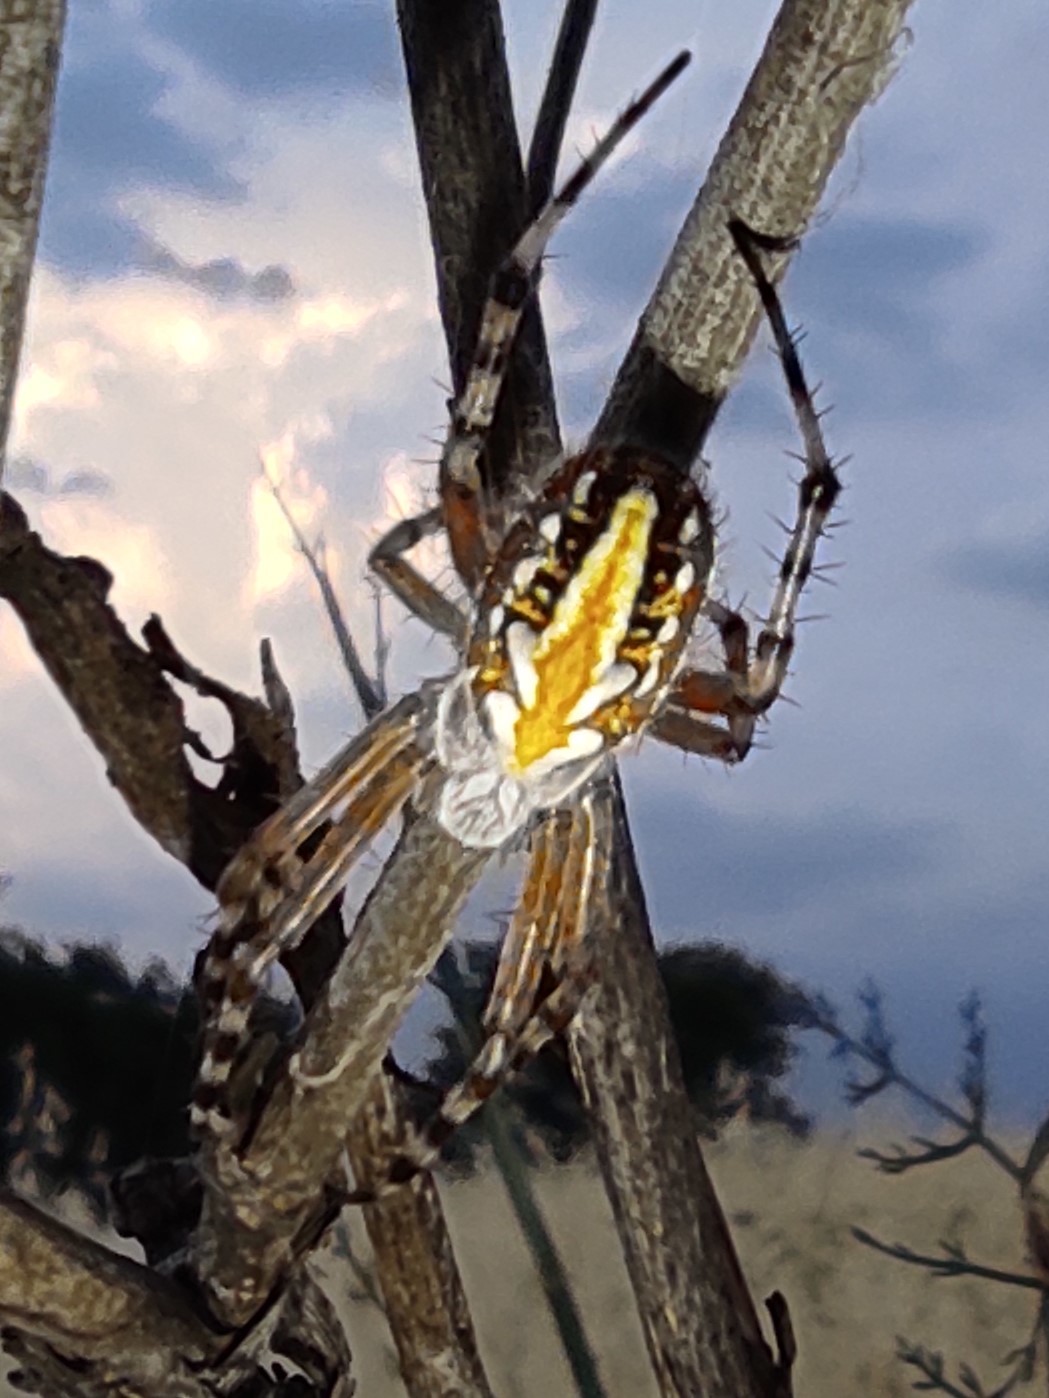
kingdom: Animalia
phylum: Arthropoda
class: Arachnida
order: Araneae
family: Araneidae
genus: Aculepeira
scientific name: Aculepeira armida
